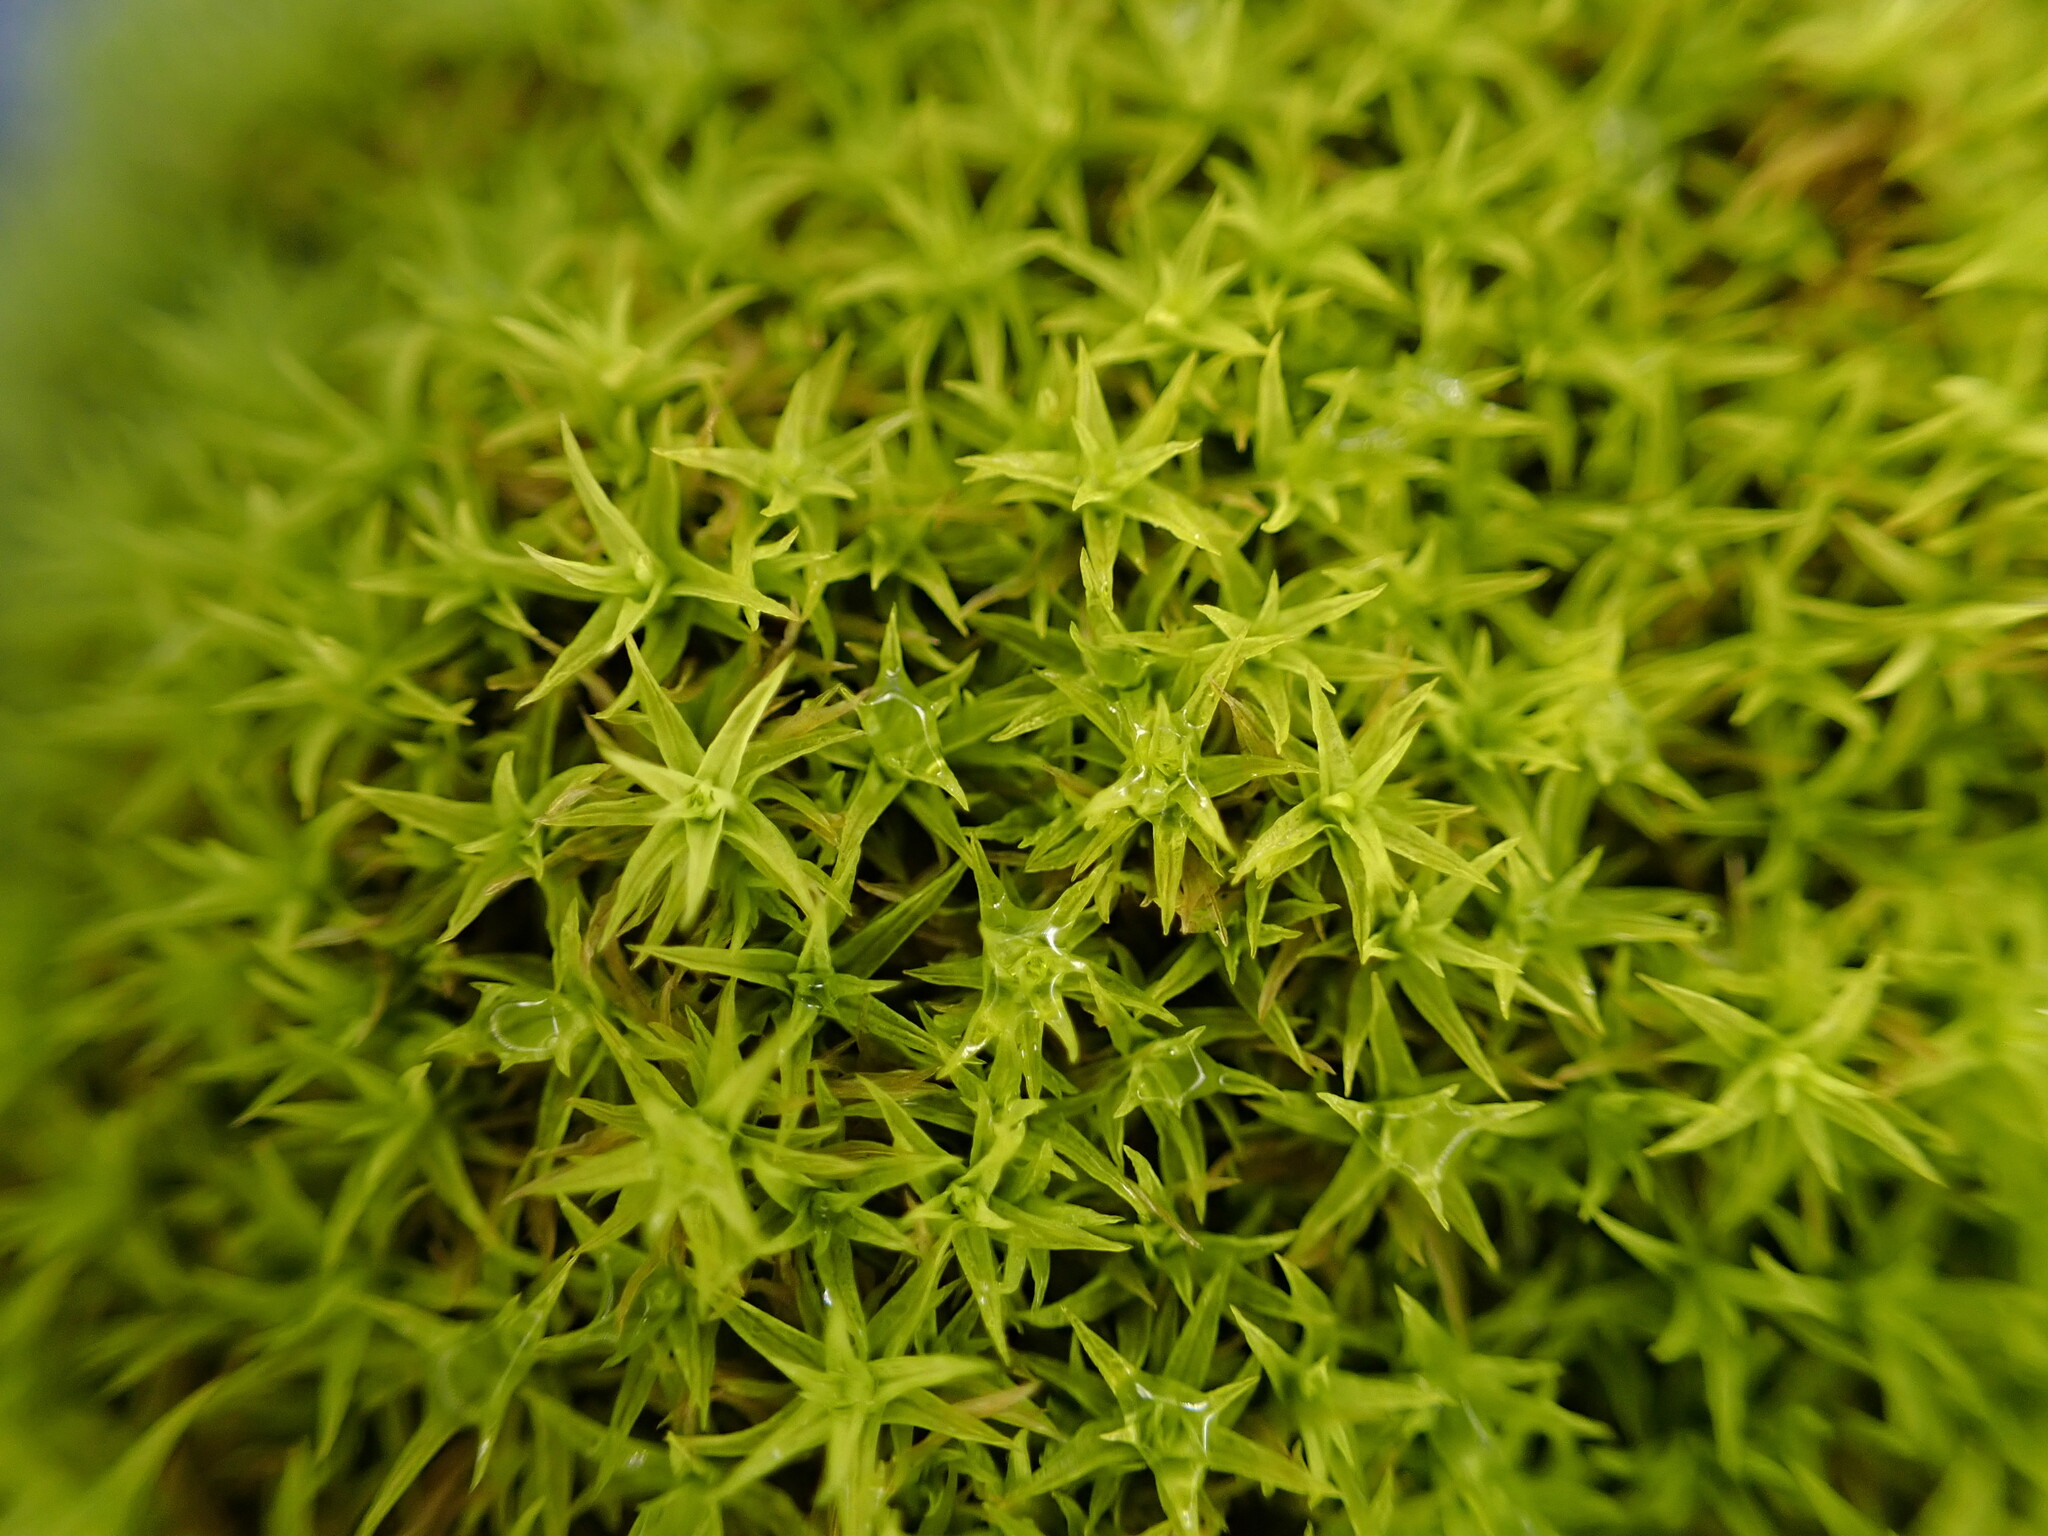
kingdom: Plantae
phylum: Bryophyta
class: Bryopsida
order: Pottiales
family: Pottiaceae
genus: Pleurochaete
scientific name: Pleurochaete squarrosa
